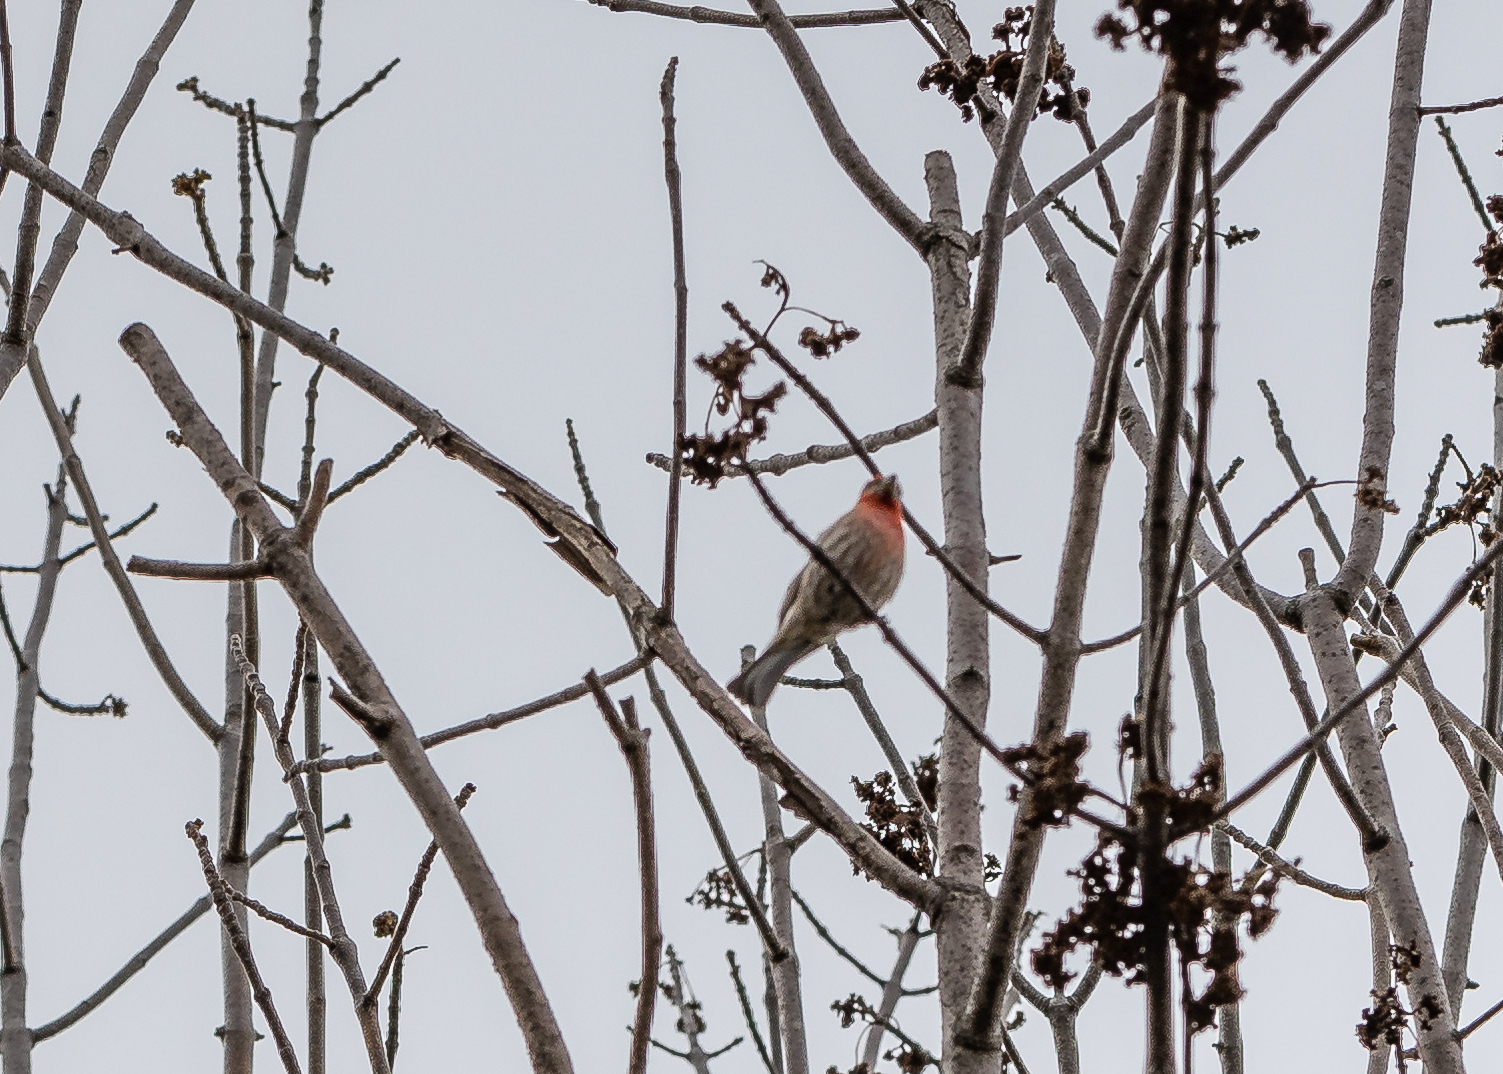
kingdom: Animalia
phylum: Chordata
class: Aves
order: Passeriformes
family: Fringillidae
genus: Haemorhous
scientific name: Haemorhous mexicanus
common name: House finch
